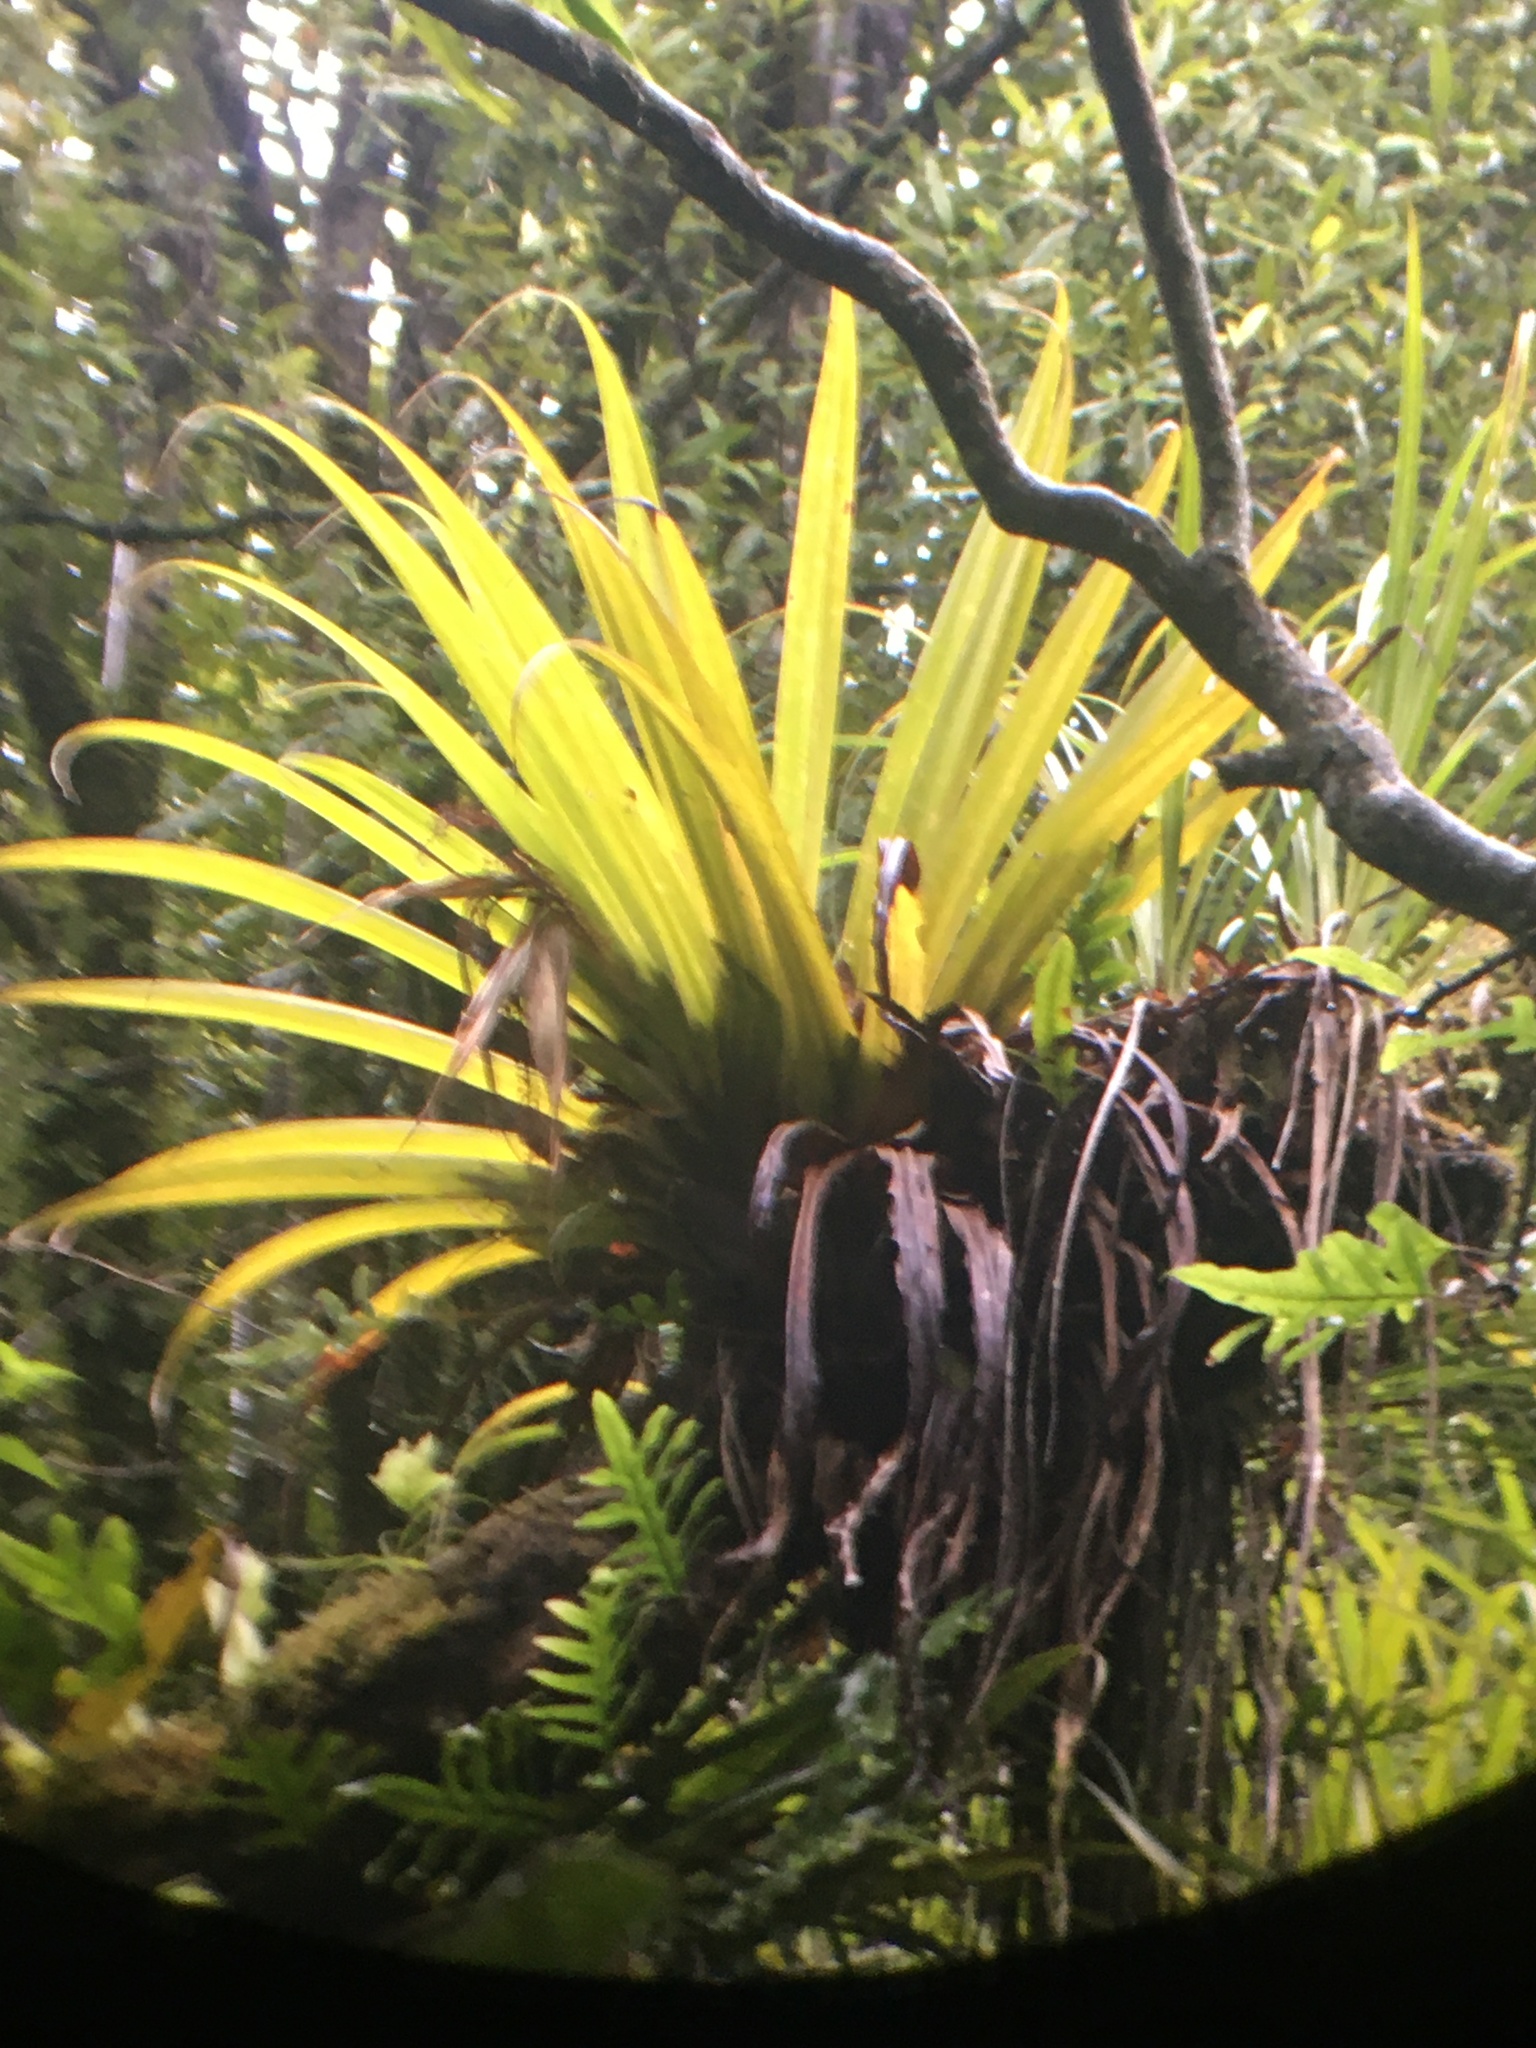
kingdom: Plantae
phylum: Tracheophyta
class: Liliopsida
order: Asparagales
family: Asteliaceae
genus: Astelia
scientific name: Astelia hastata
